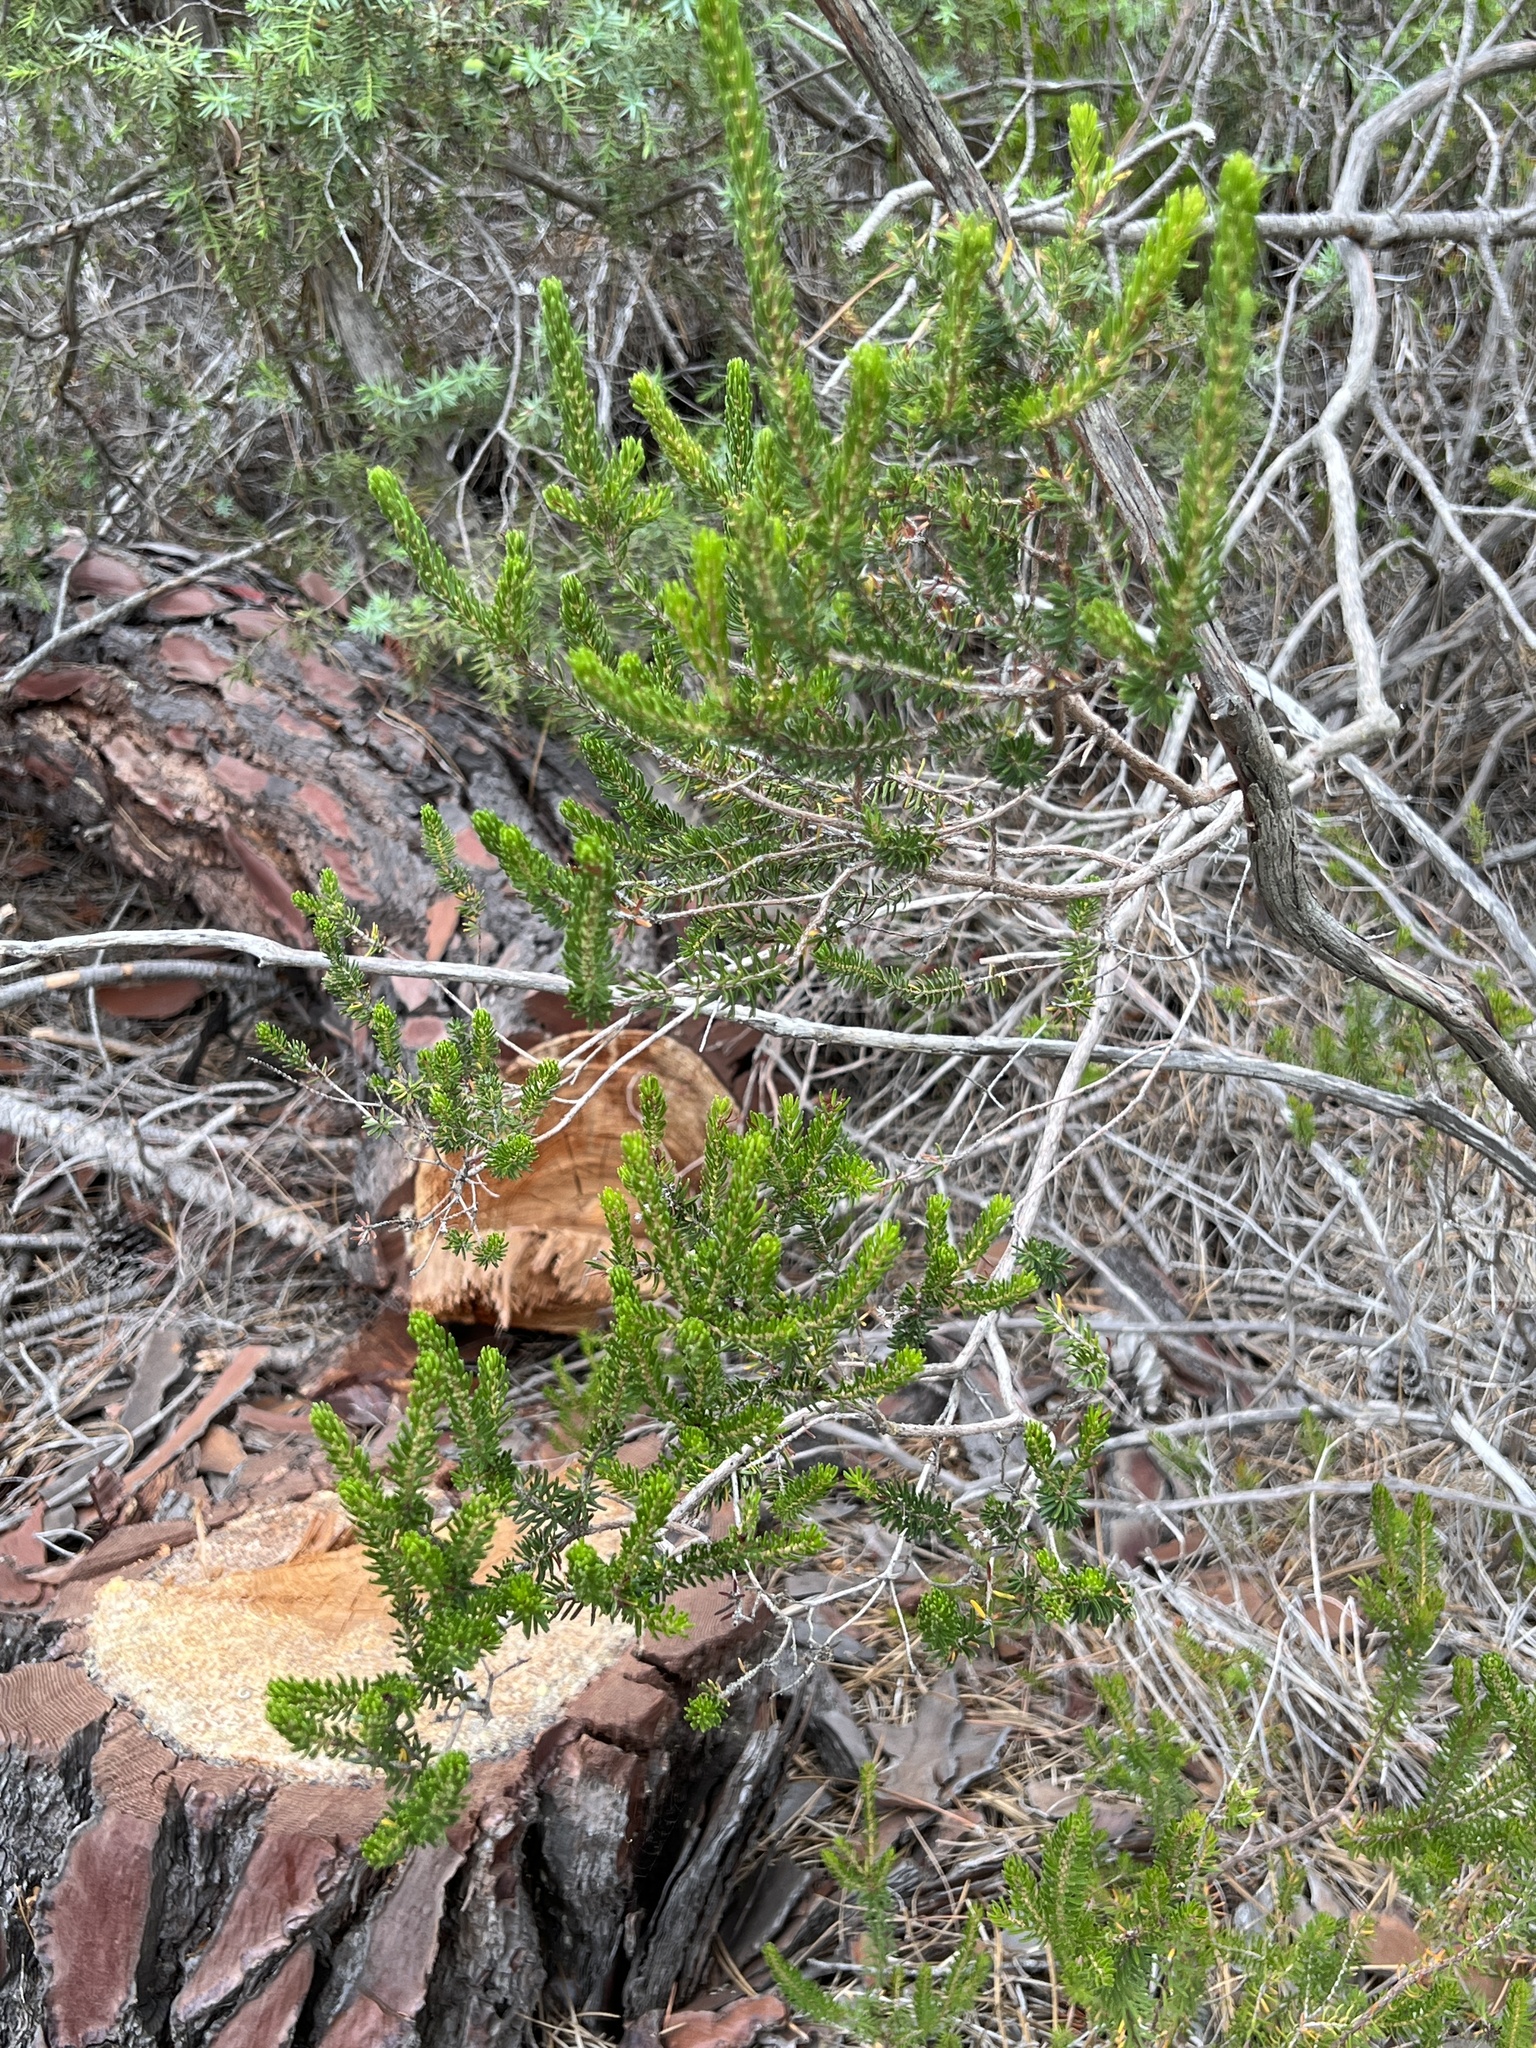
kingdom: Plantae
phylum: Tracheophyta
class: Magnoliopsida
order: Ericales
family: Ericaceae
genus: Erica
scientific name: Erica multiflora
